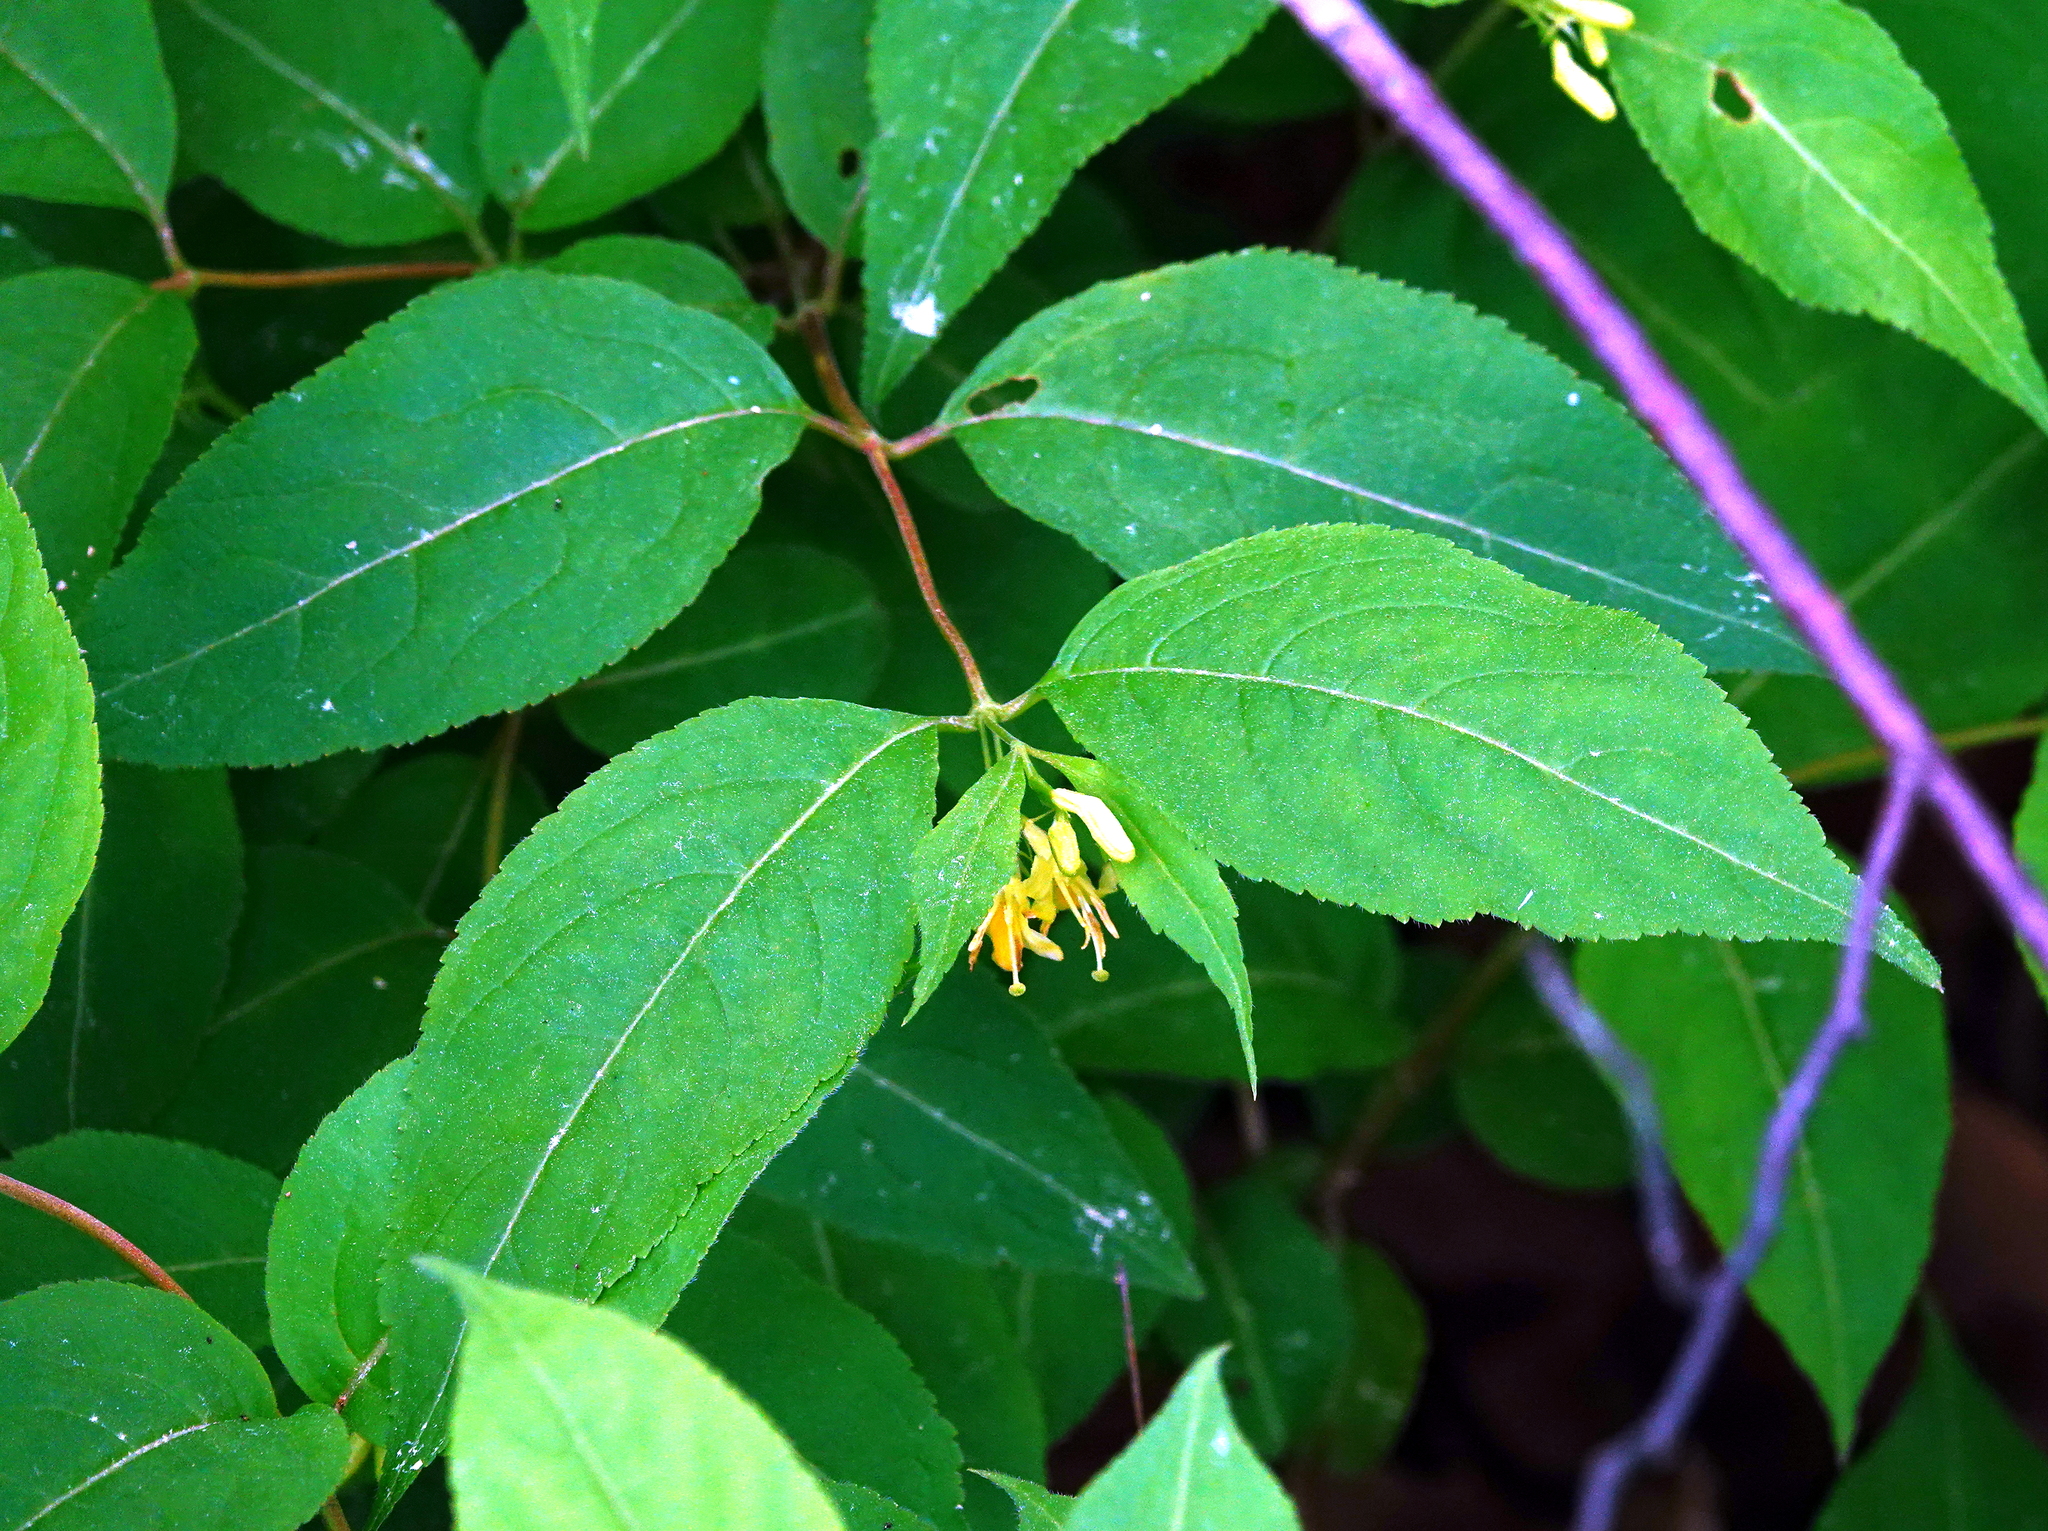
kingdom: Plantae
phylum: Tracheophyta
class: Magnoliopsida
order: Dipsacales
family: Caprifoliaceae
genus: Diervilla
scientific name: Diervilla lonicera
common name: Bush-honeysuckle
